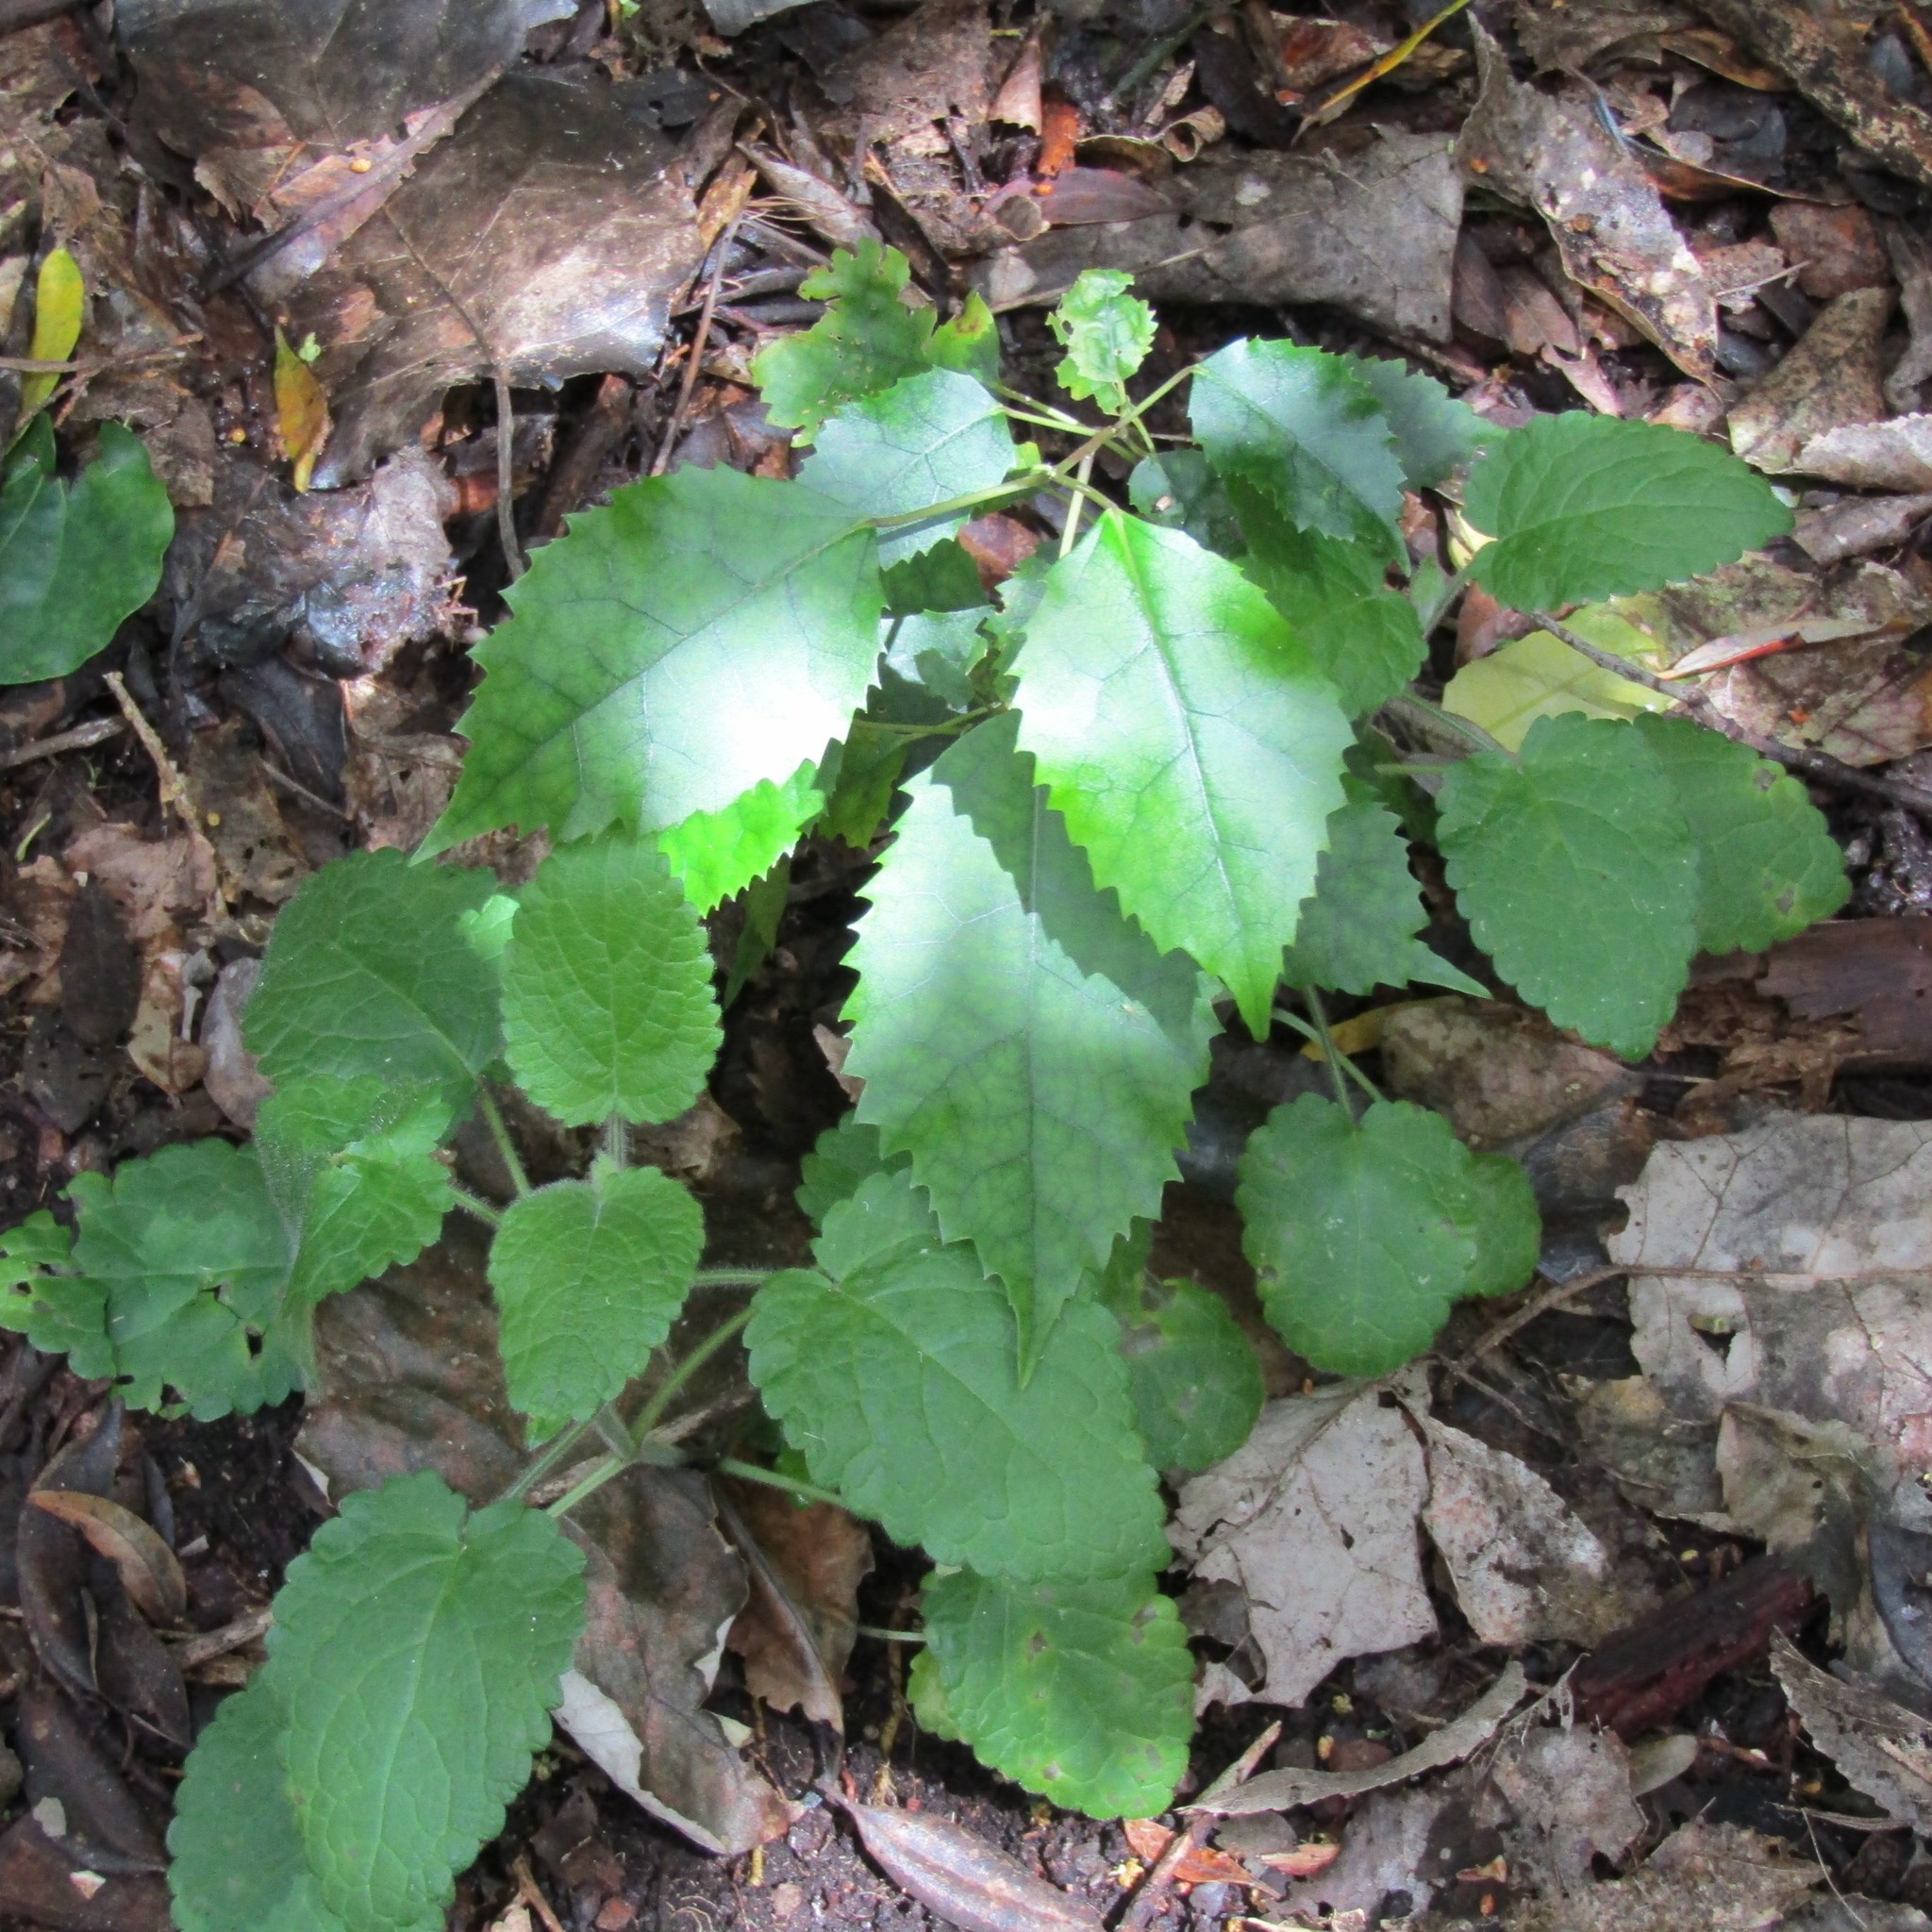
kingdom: Plantae
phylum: Tracheophyta
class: Magnoliopsida
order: Malvales
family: Malvaceae
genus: Hoheria
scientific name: Hoheria populnea
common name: Lacebark
